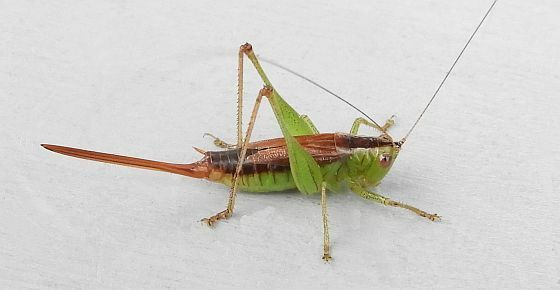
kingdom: Animalia
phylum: Arthropoda
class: Insecta
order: Orthoptera
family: Tettigoniidae
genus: Conocephalus
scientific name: Conocephalus brevipennis
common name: Short-winged meadow katydid
